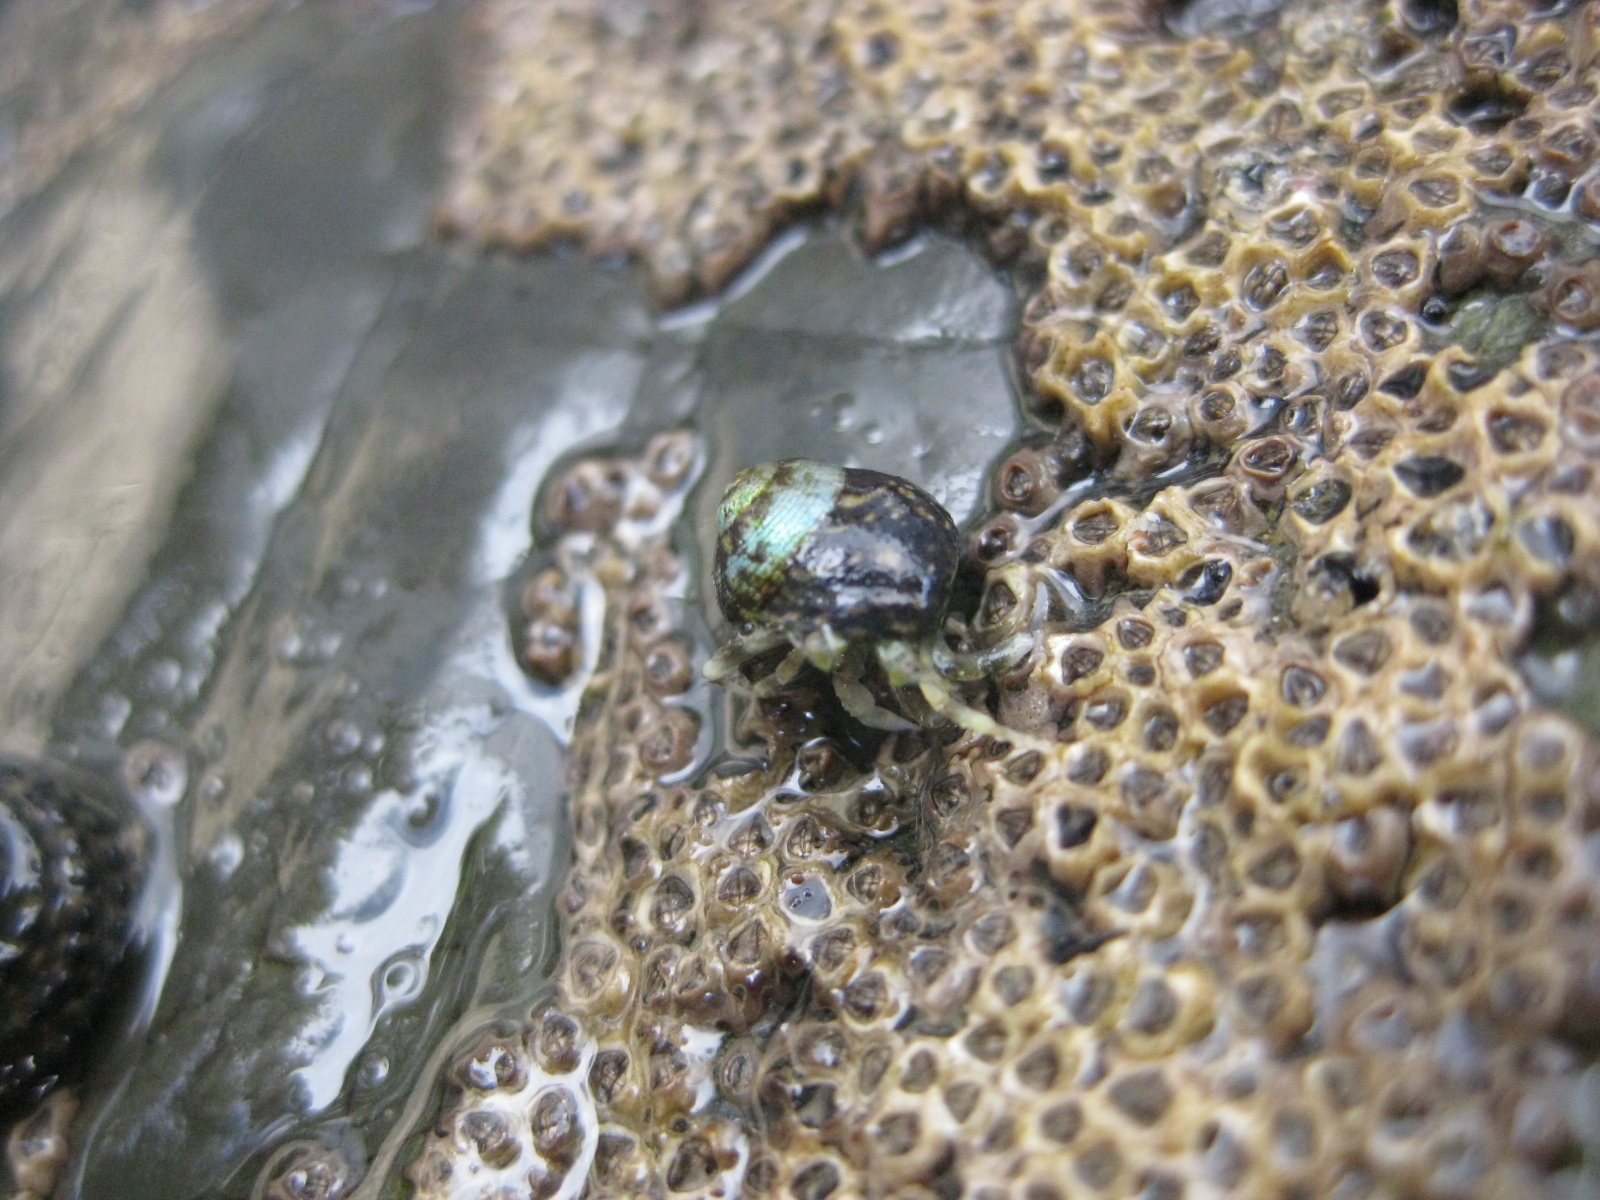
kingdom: Animalia
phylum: Mollusca
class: Gastropoda
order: Trochida
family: Trochidae
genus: Micrelenchus
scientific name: Micrelenchus tessellatus
